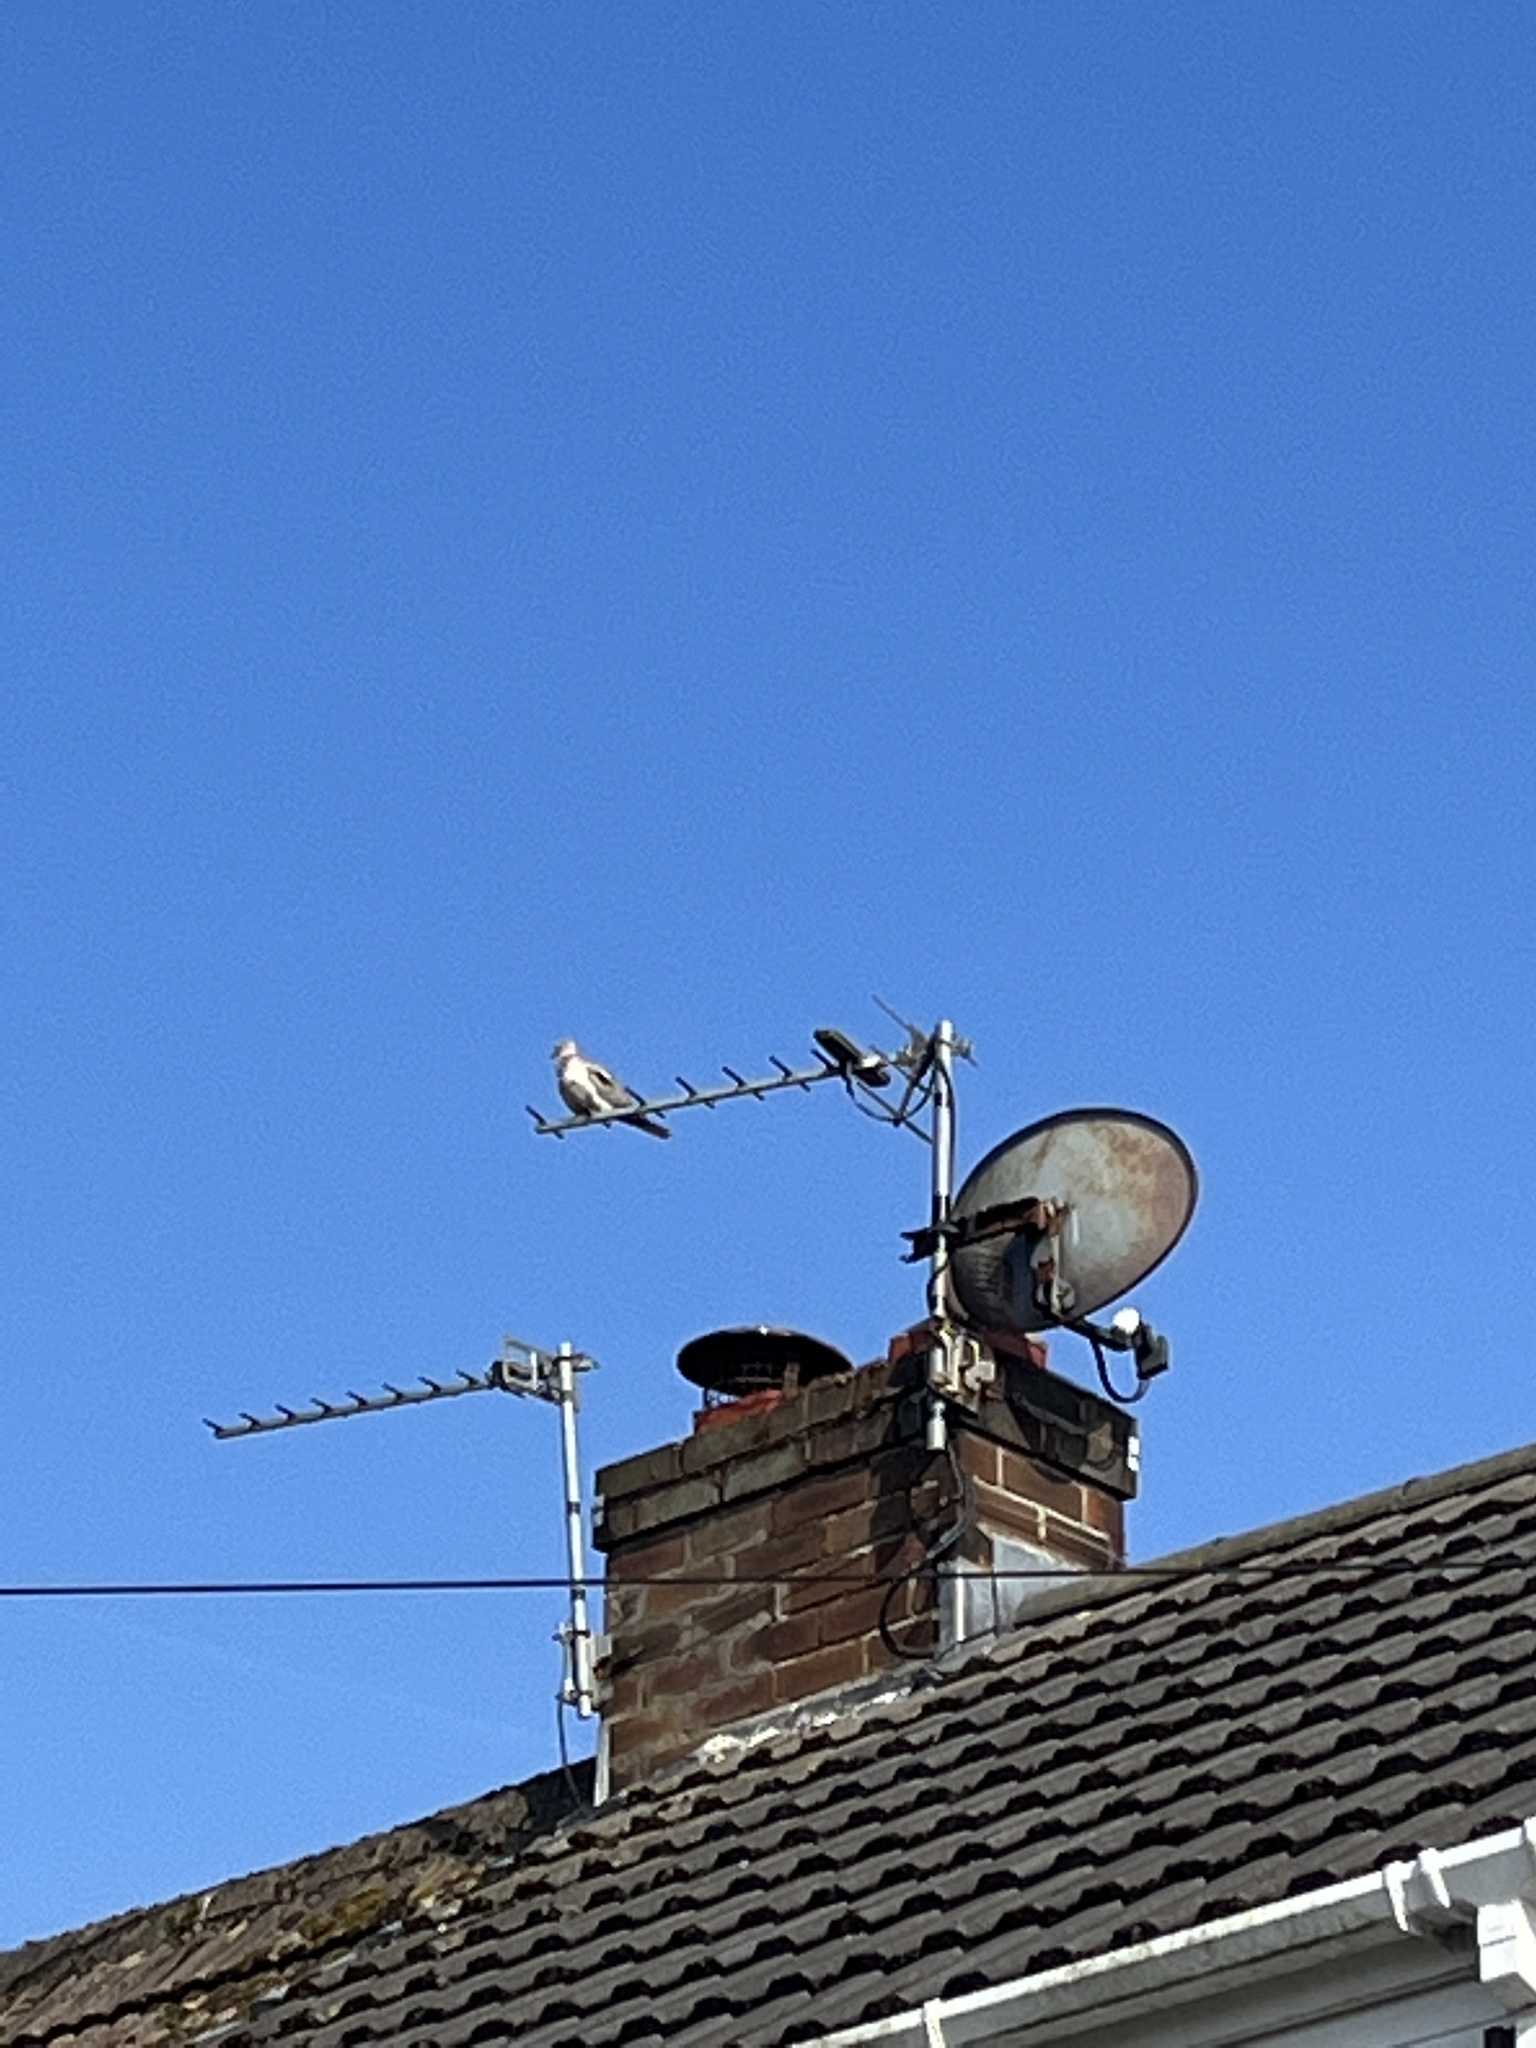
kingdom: Animalia
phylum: Chordata
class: Aves
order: Columbiformes
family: Columbidae
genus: Streptopelia
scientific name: Streptopelia decaocto
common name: Eurasian collared dove
